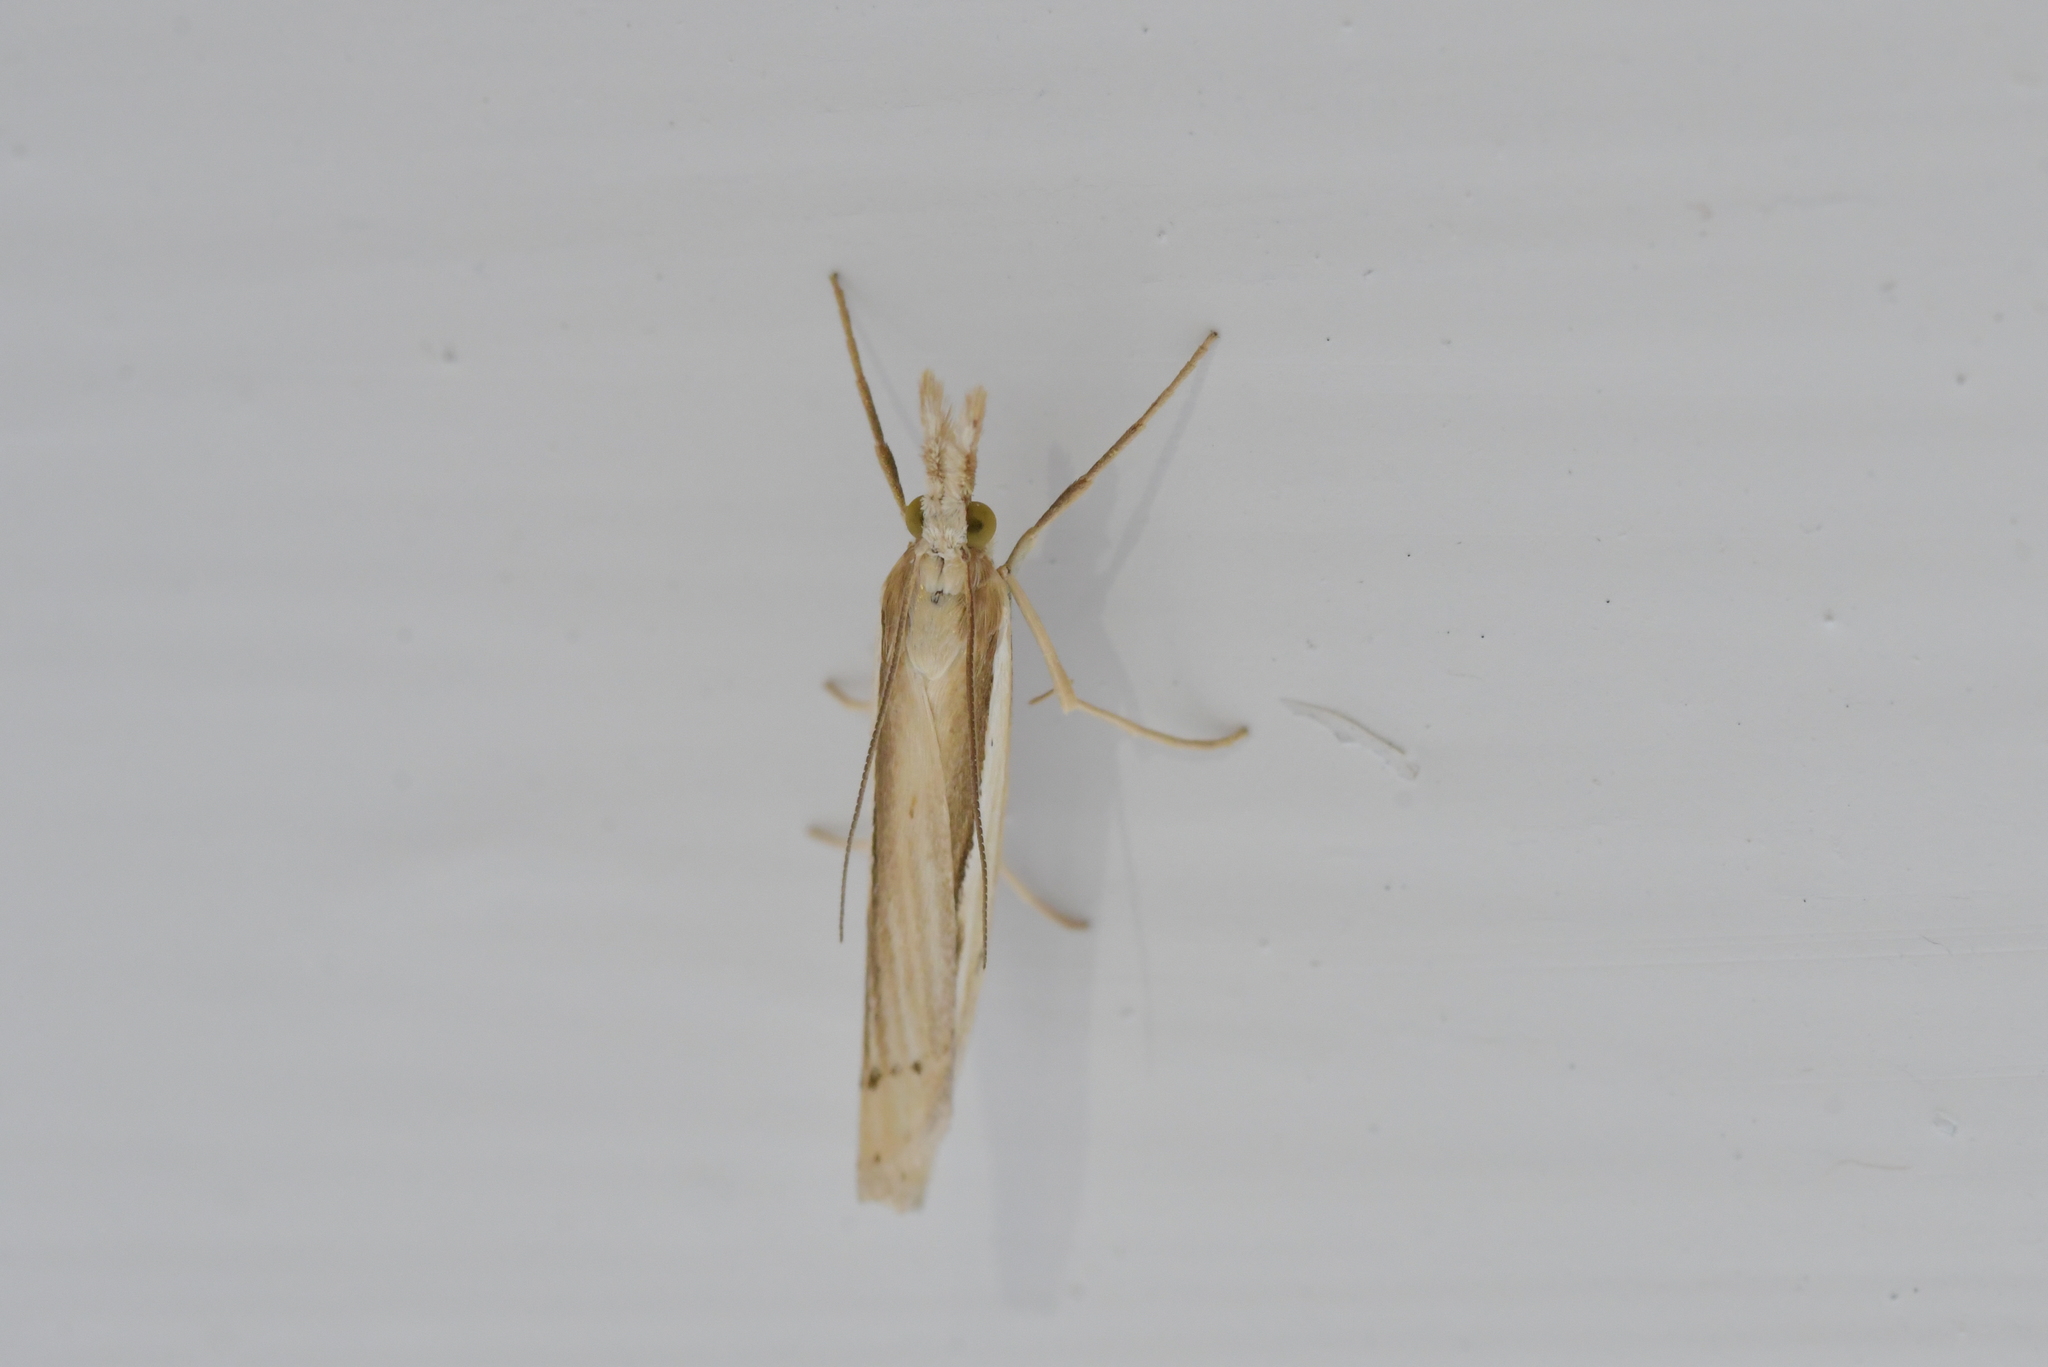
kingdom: Animalia
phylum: Arthropoda
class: Insecta
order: Lepidoptera
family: Crambidae
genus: Orocrambus
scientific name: Orocrambus ramosellus
